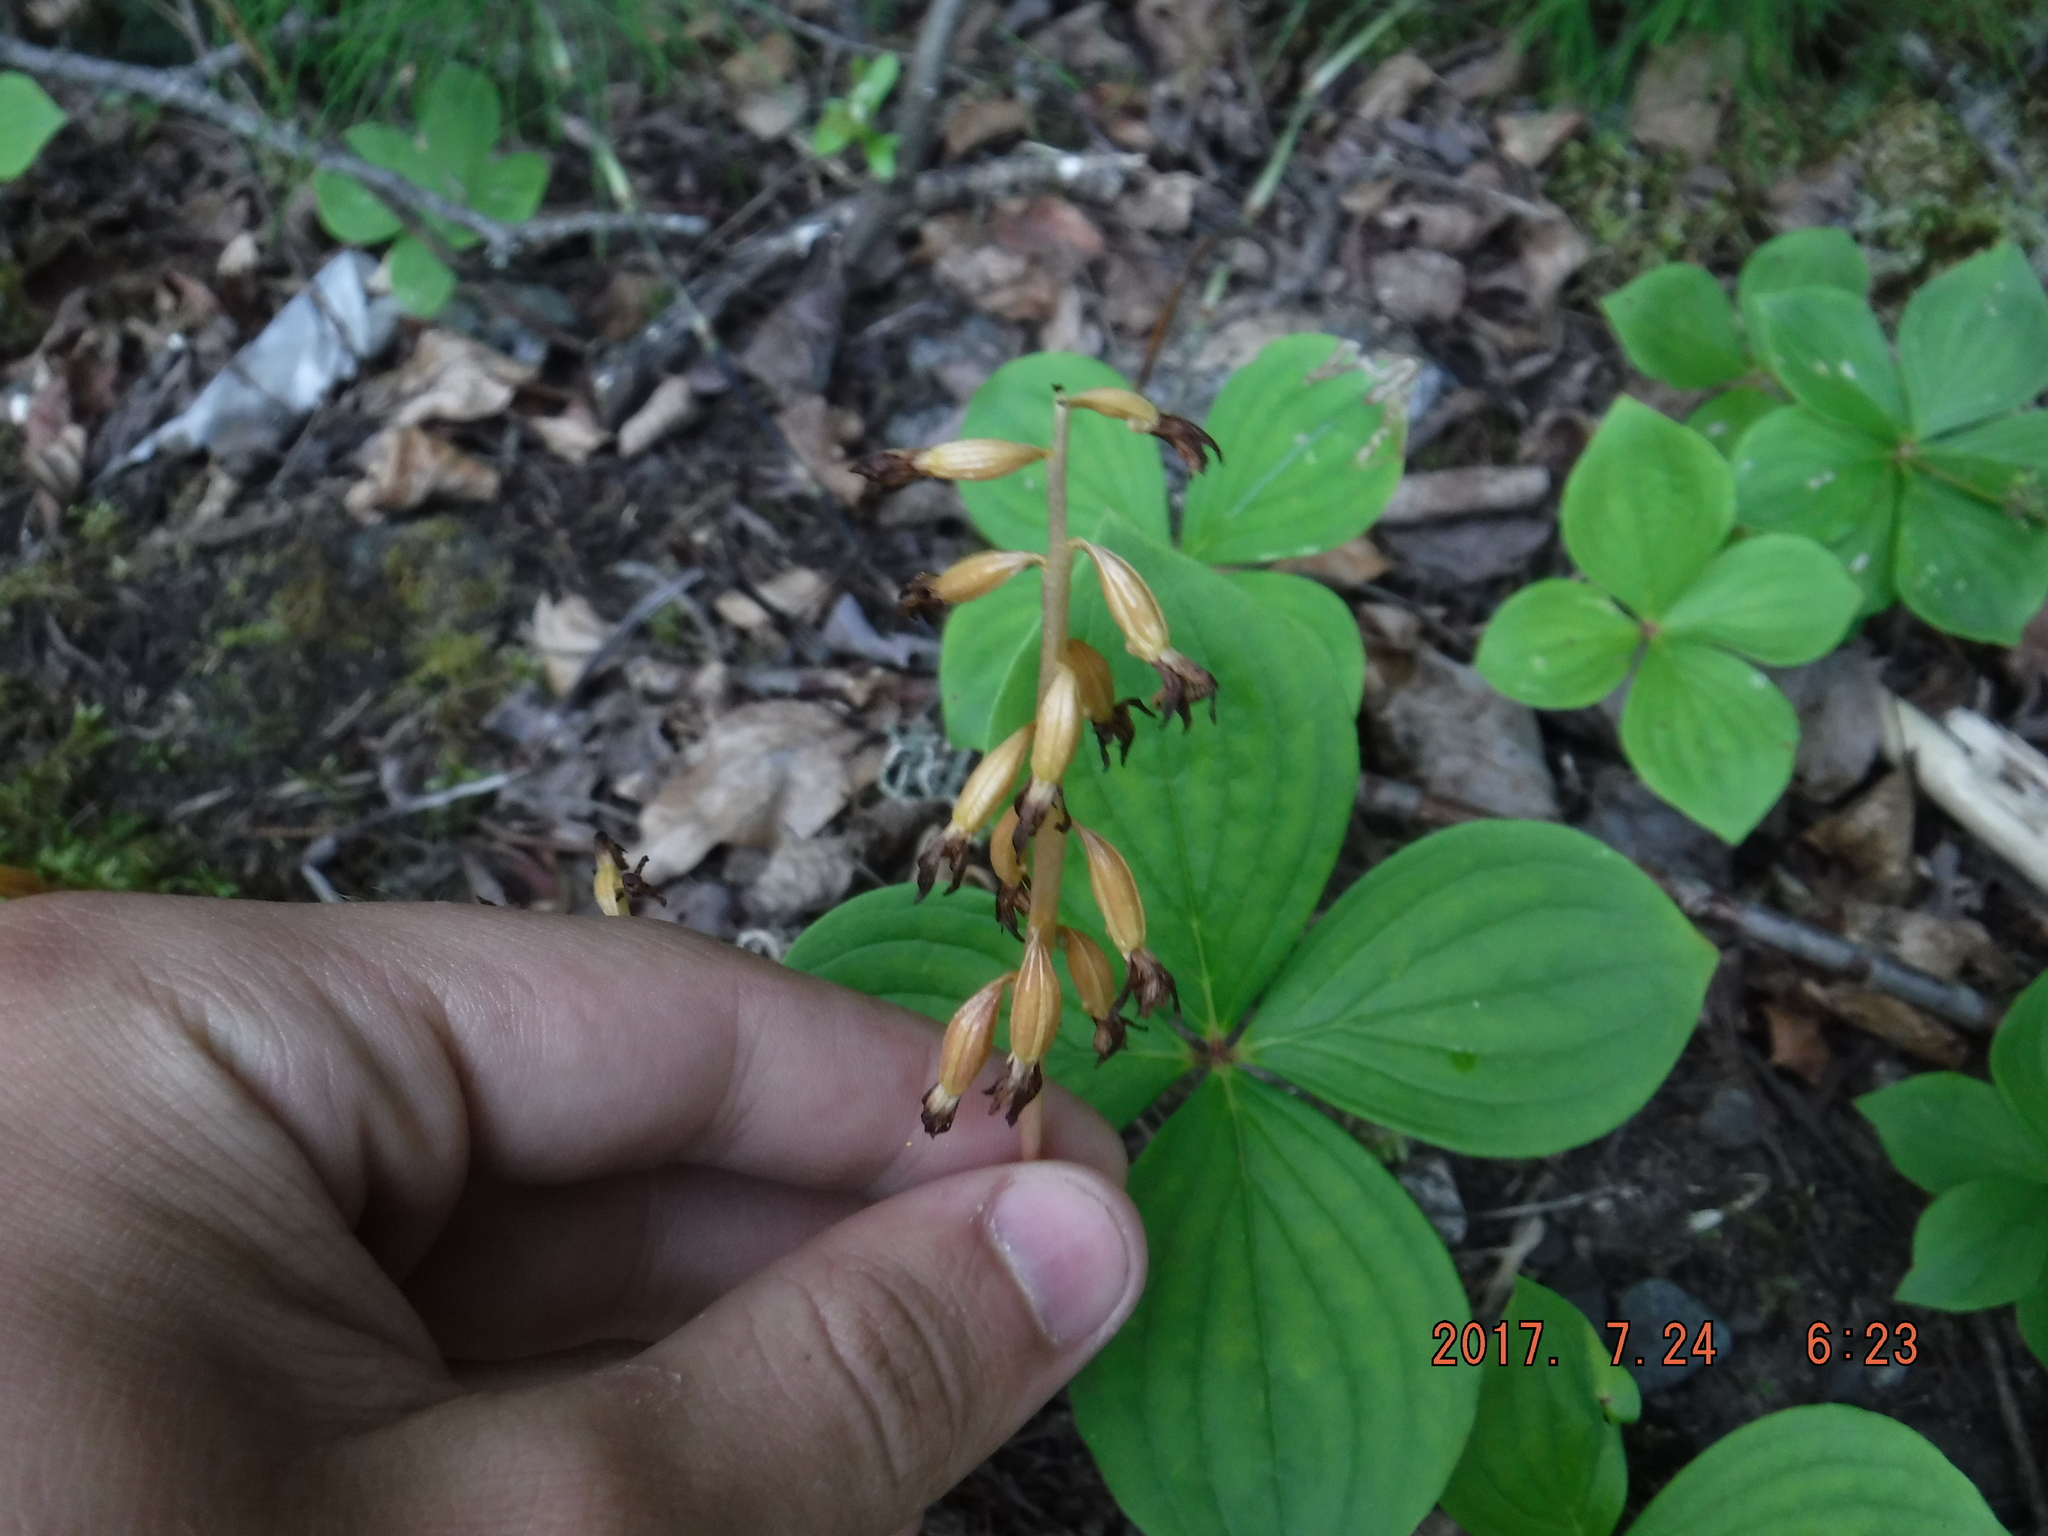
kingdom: Plantae
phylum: Tracheophyta
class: Liliopsida
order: Asparagales
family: Orchidaceae
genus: Corallorhiza
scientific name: Corallorhiza maculata
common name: Spotted coralroot
